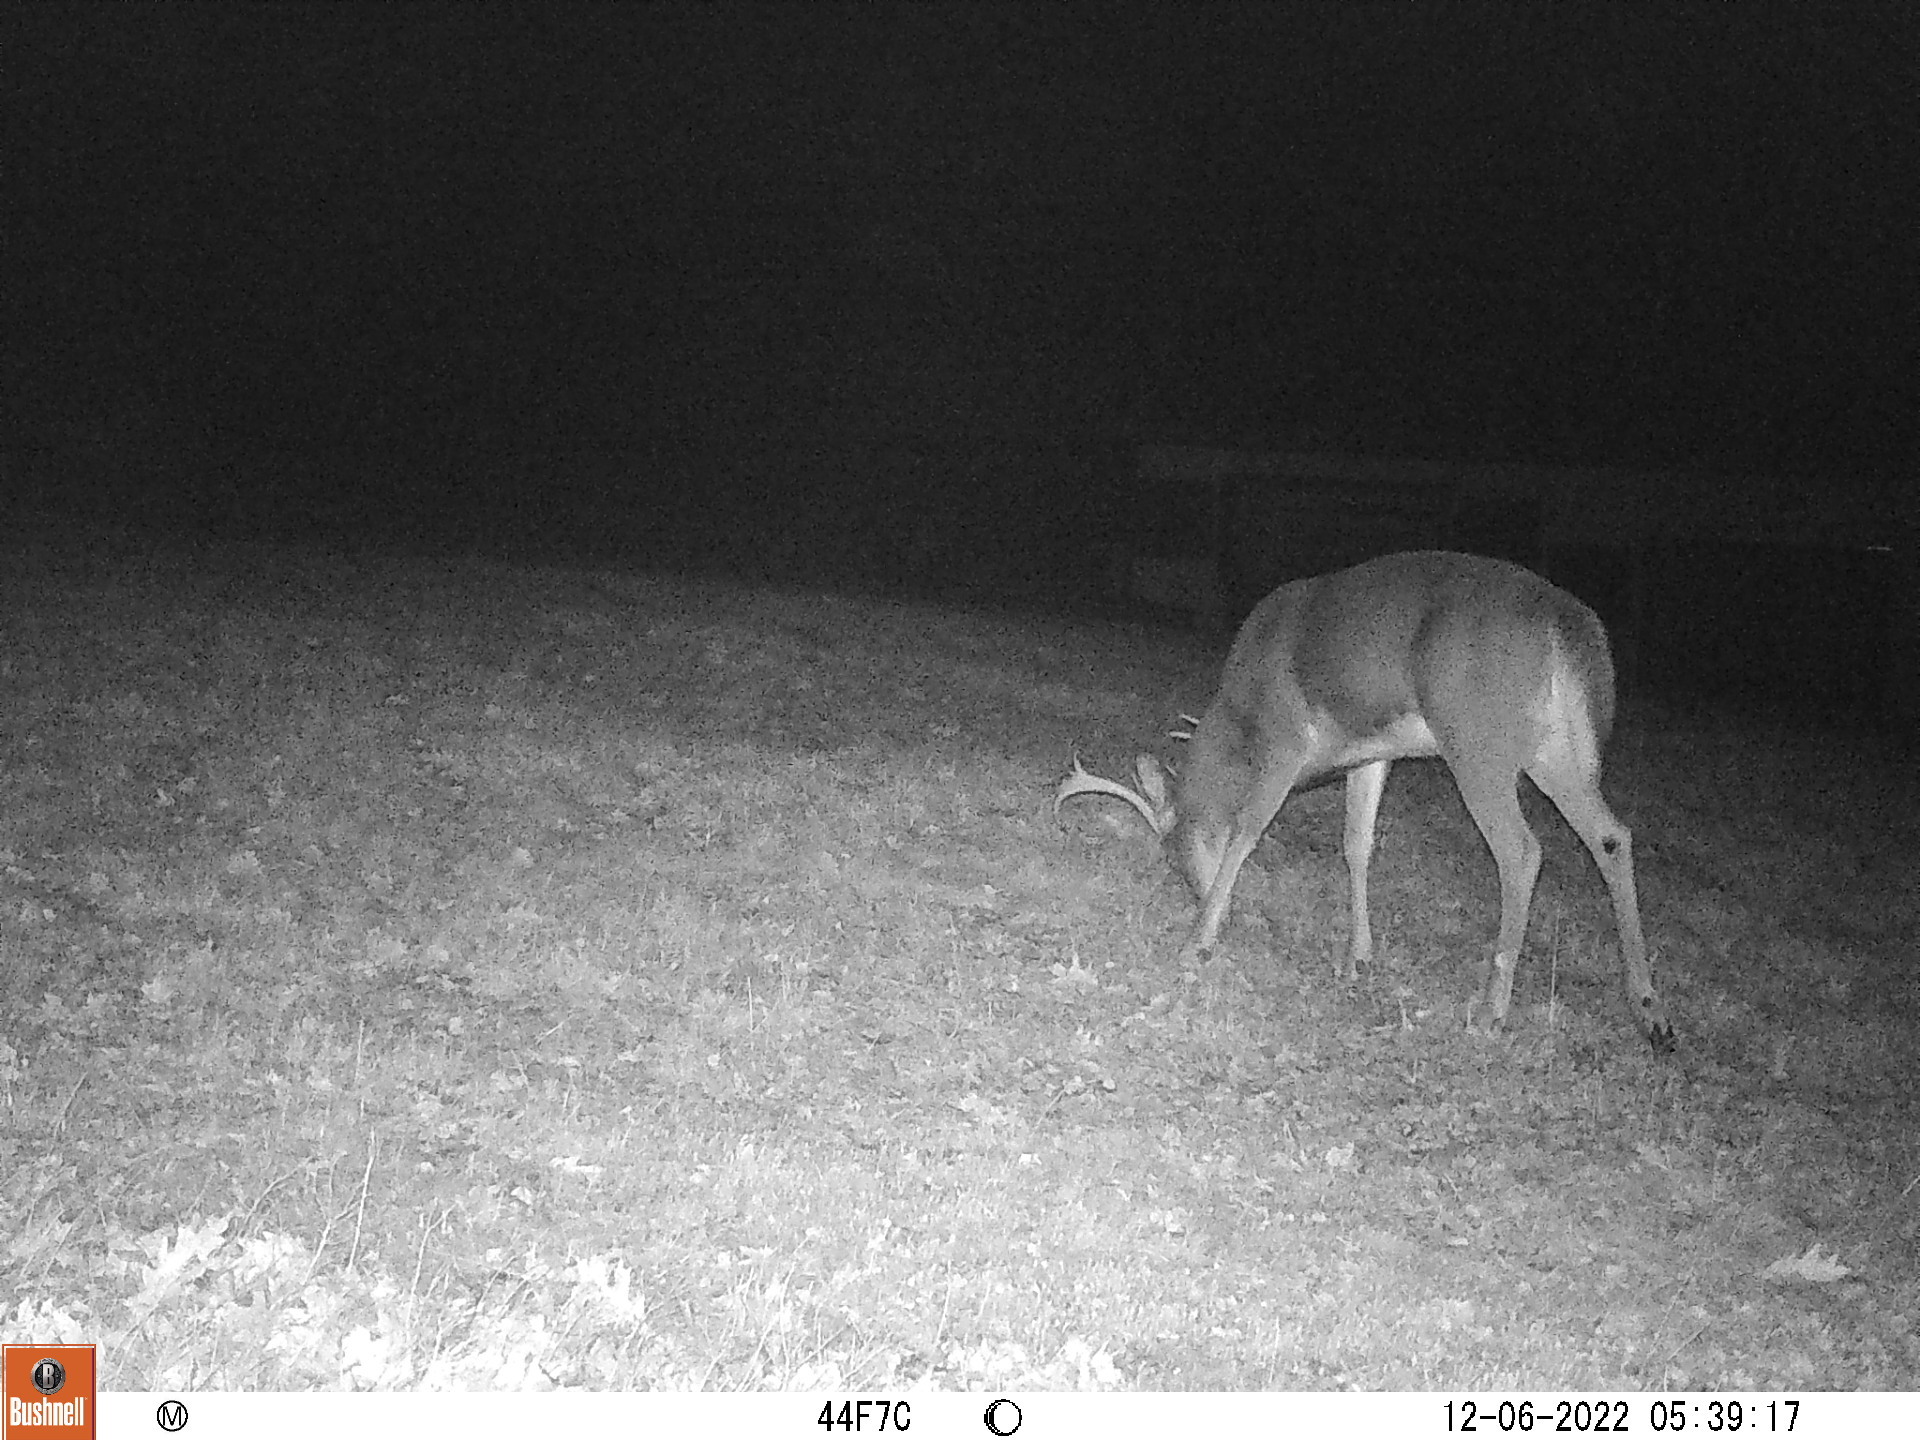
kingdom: Animalia
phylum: Chordata
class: Mammalia
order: Artiodactyla
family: Cervidae
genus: Odocoileus
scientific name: Odocoileus virginianus
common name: White-tailed deer
